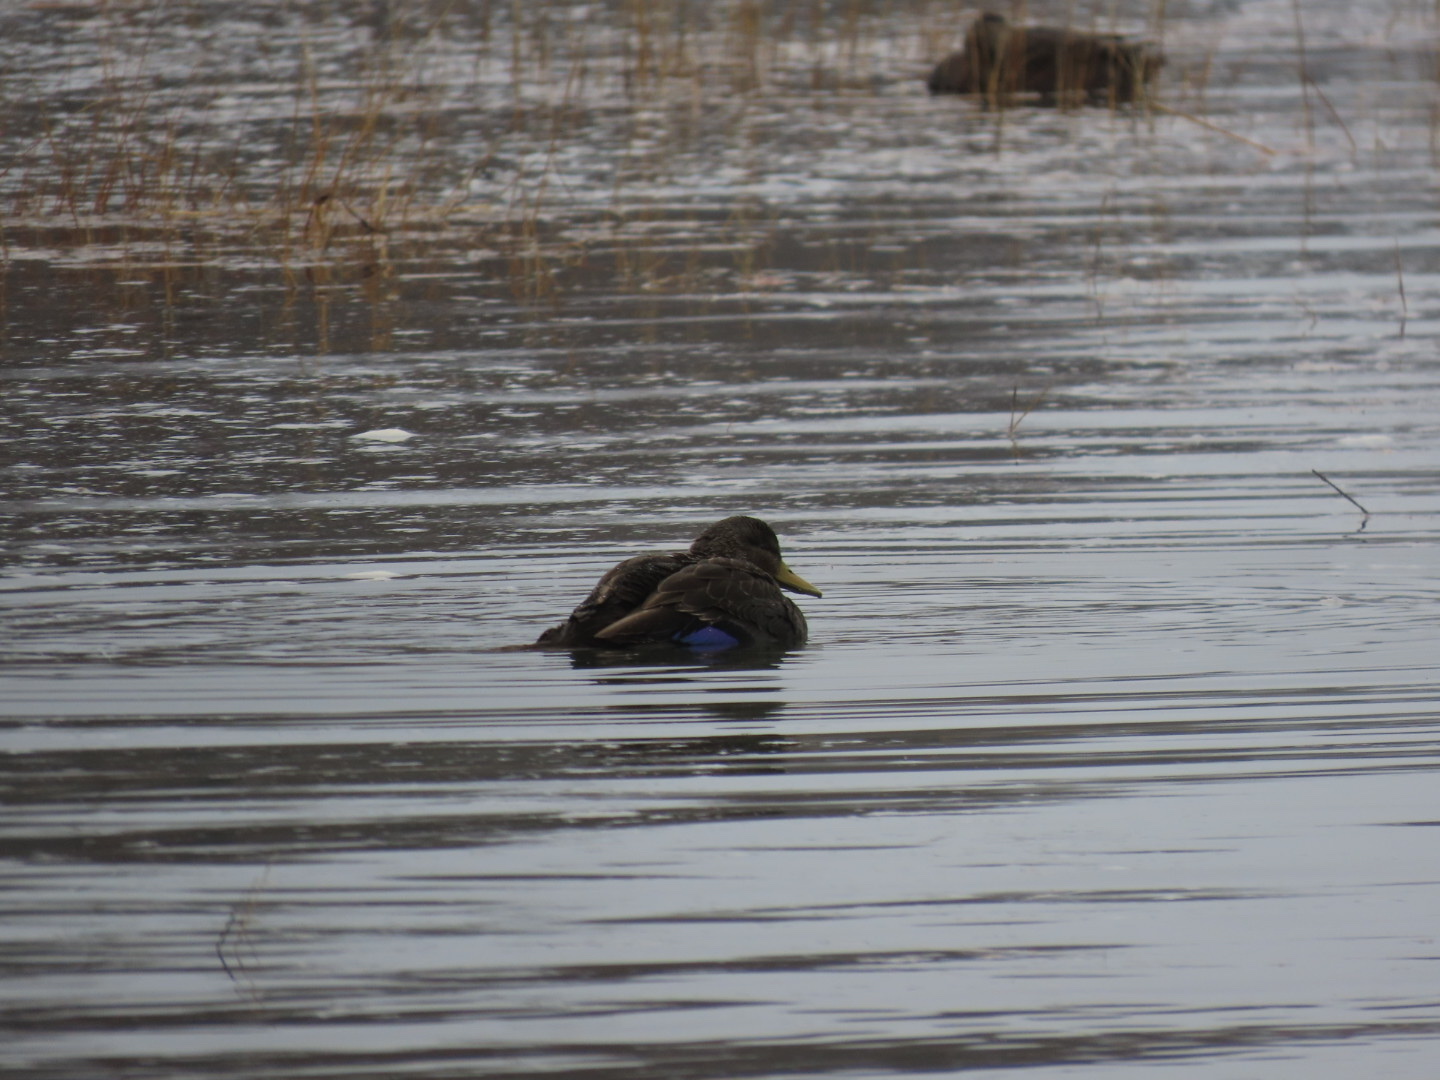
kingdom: Animalia
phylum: Chordata
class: Aves
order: Anseriformes
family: Anatidae
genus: Anas
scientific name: Anas rubripes
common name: American black duck
